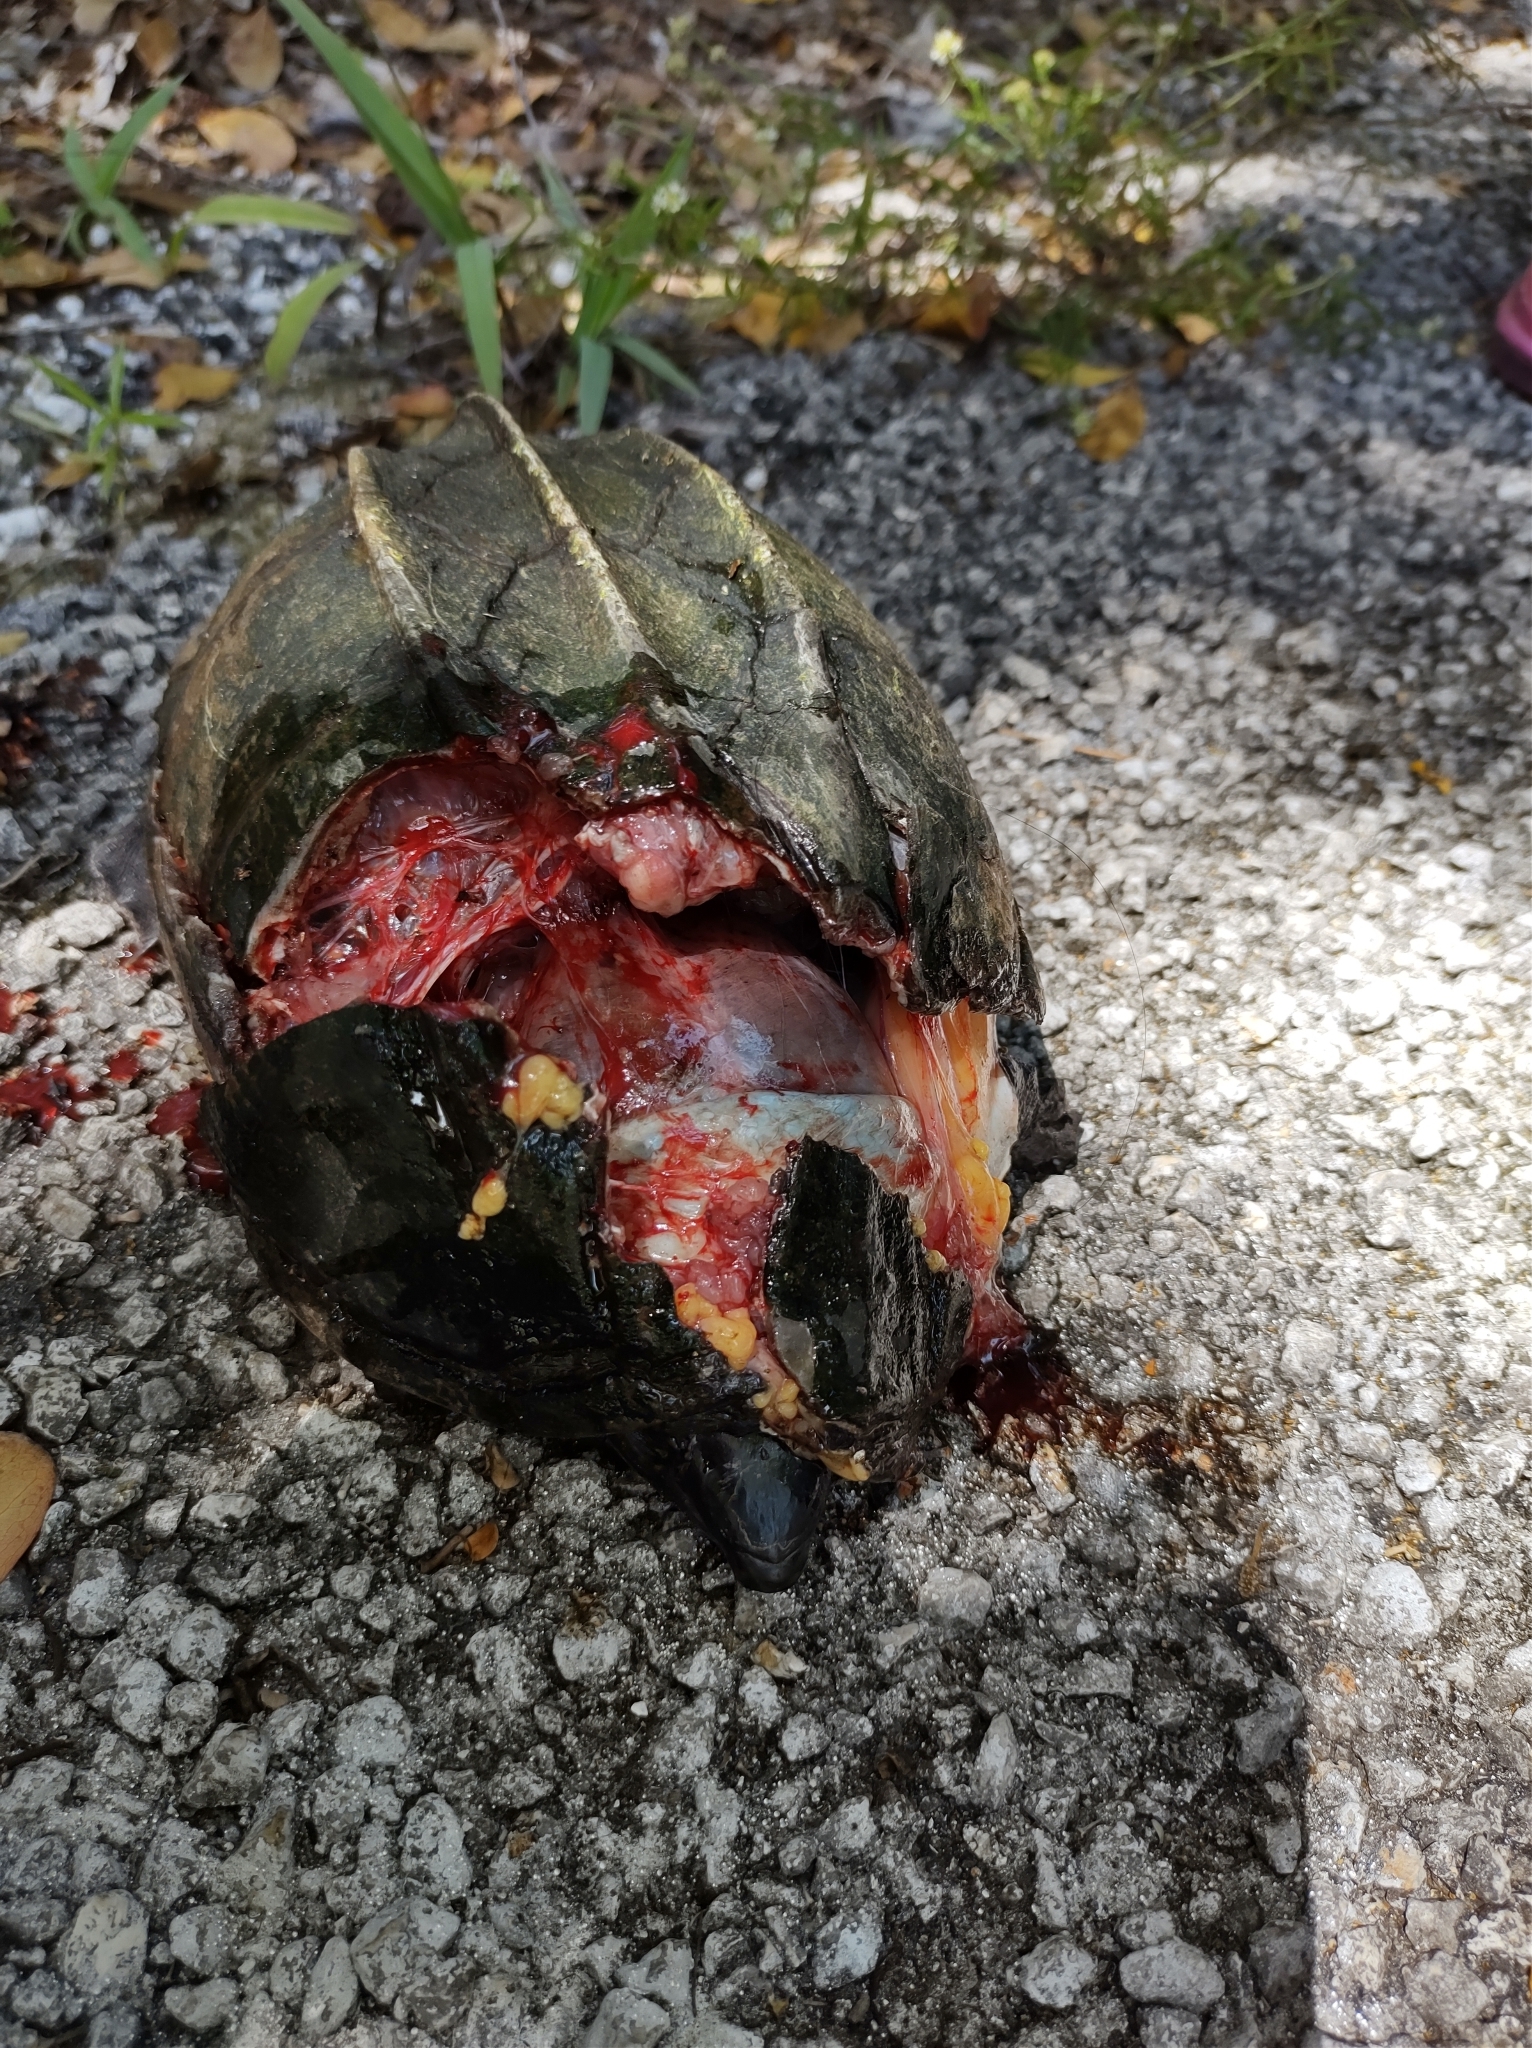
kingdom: Animalia
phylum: Chordata
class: Testudines
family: Kinosternidae
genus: Staurotypus
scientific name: Staurotypus triporcatus
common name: Mexican giant musk turtle
